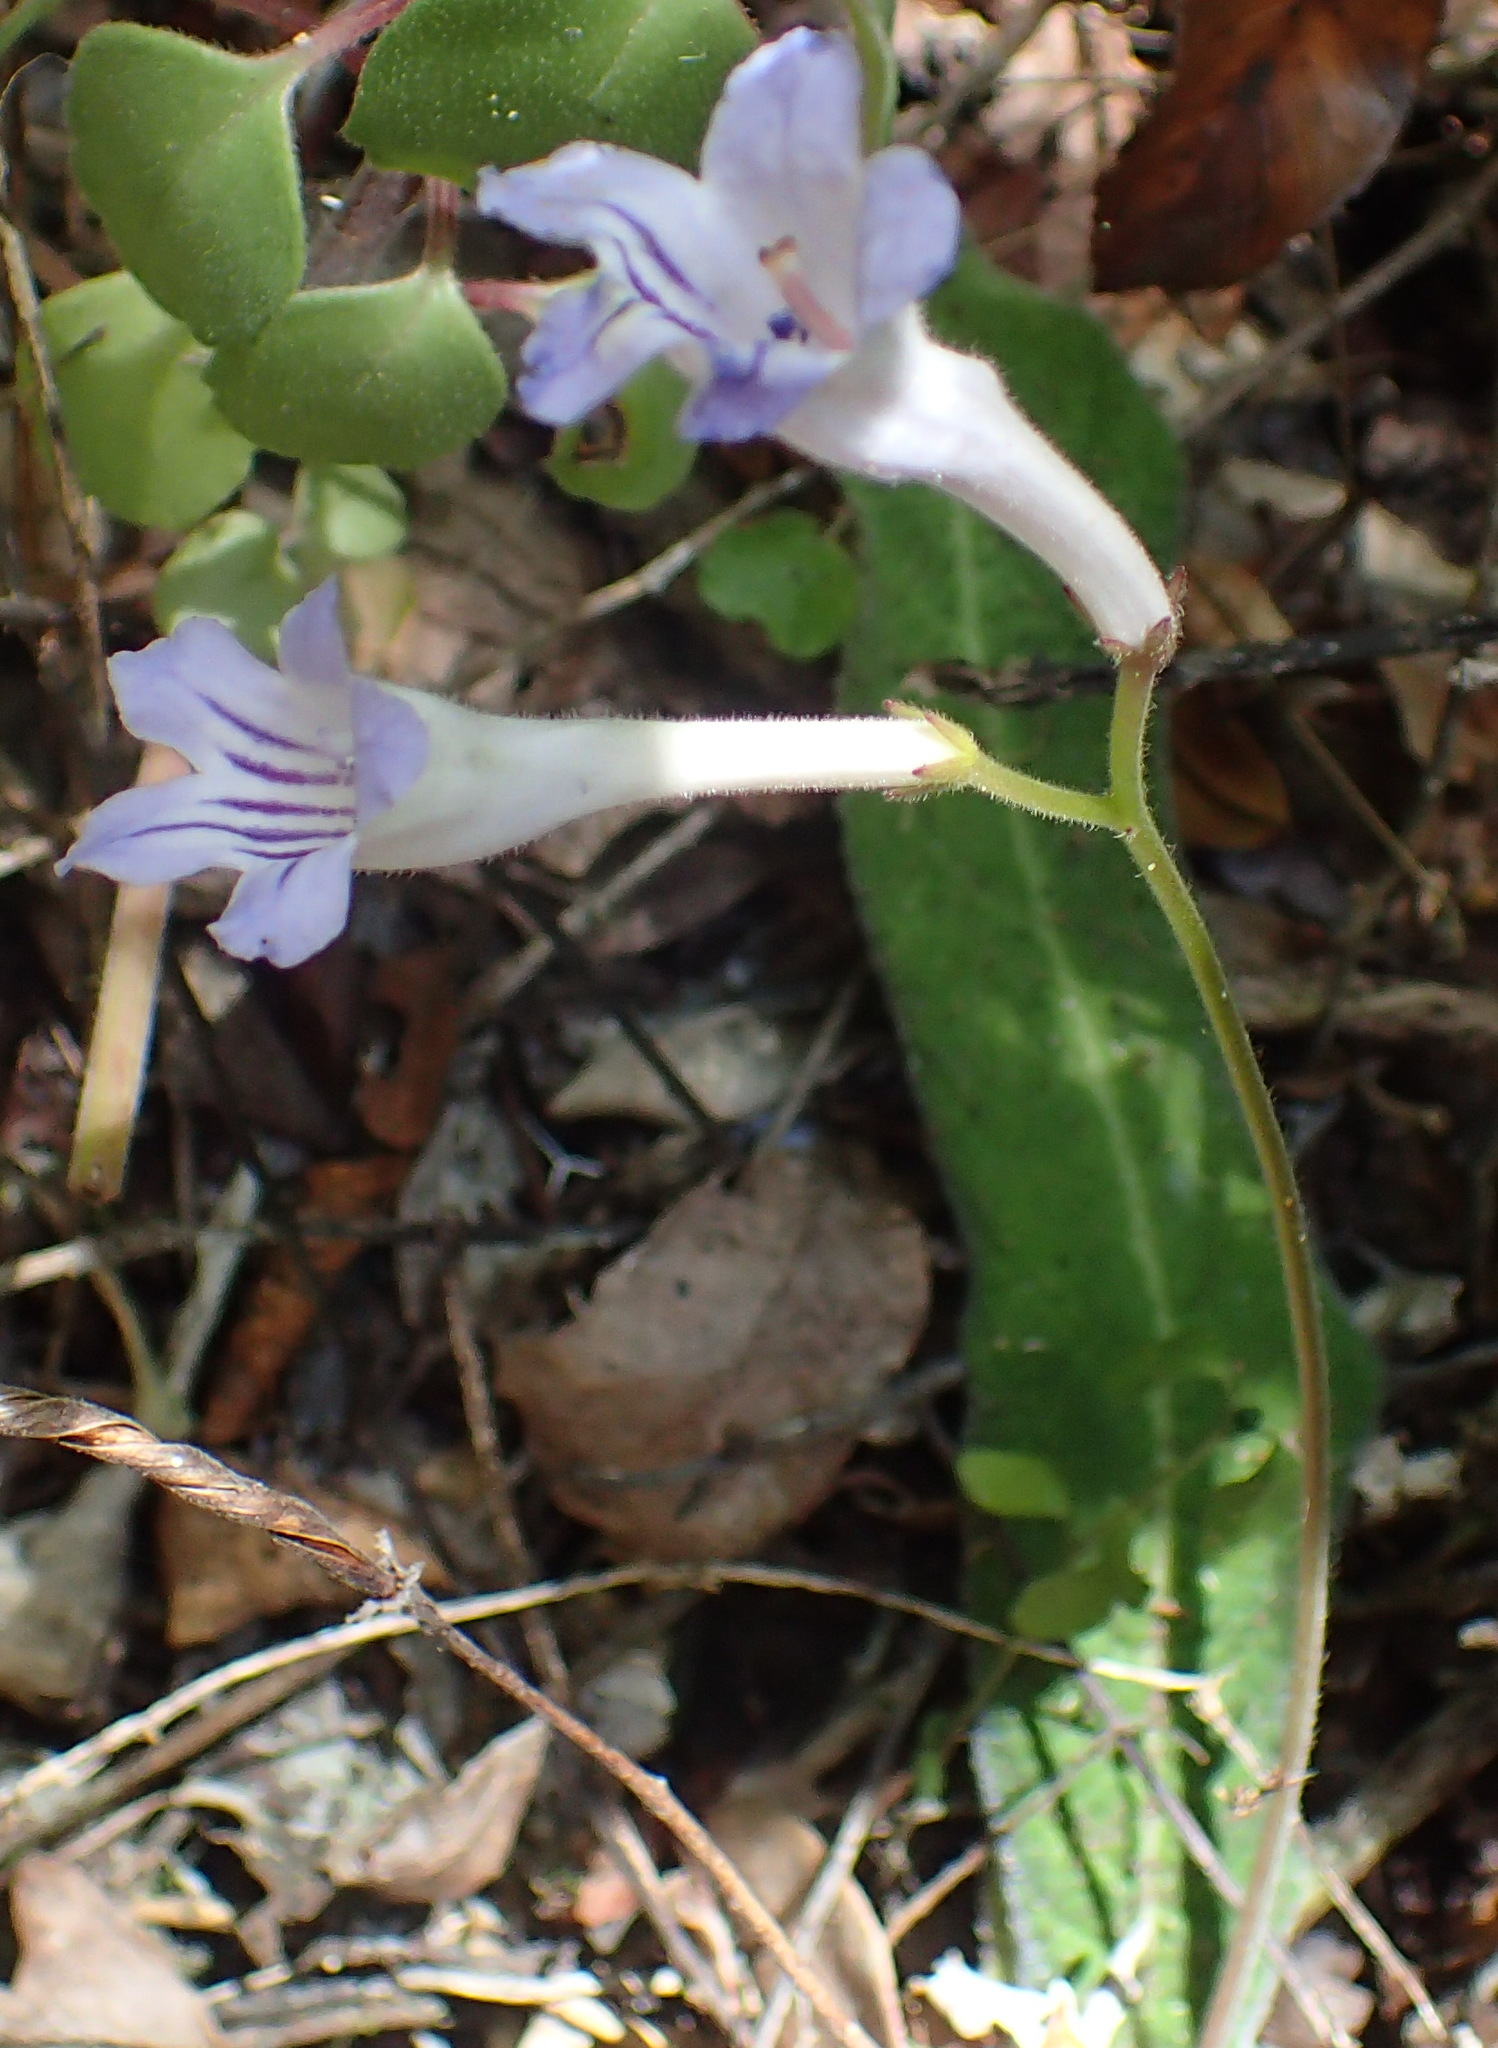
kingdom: Plantae
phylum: Tracheophyta
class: Magnoliopsida
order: Lamiales
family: Gesneriaceae
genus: Streptocarpus
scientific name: Streptocarpus rexii
